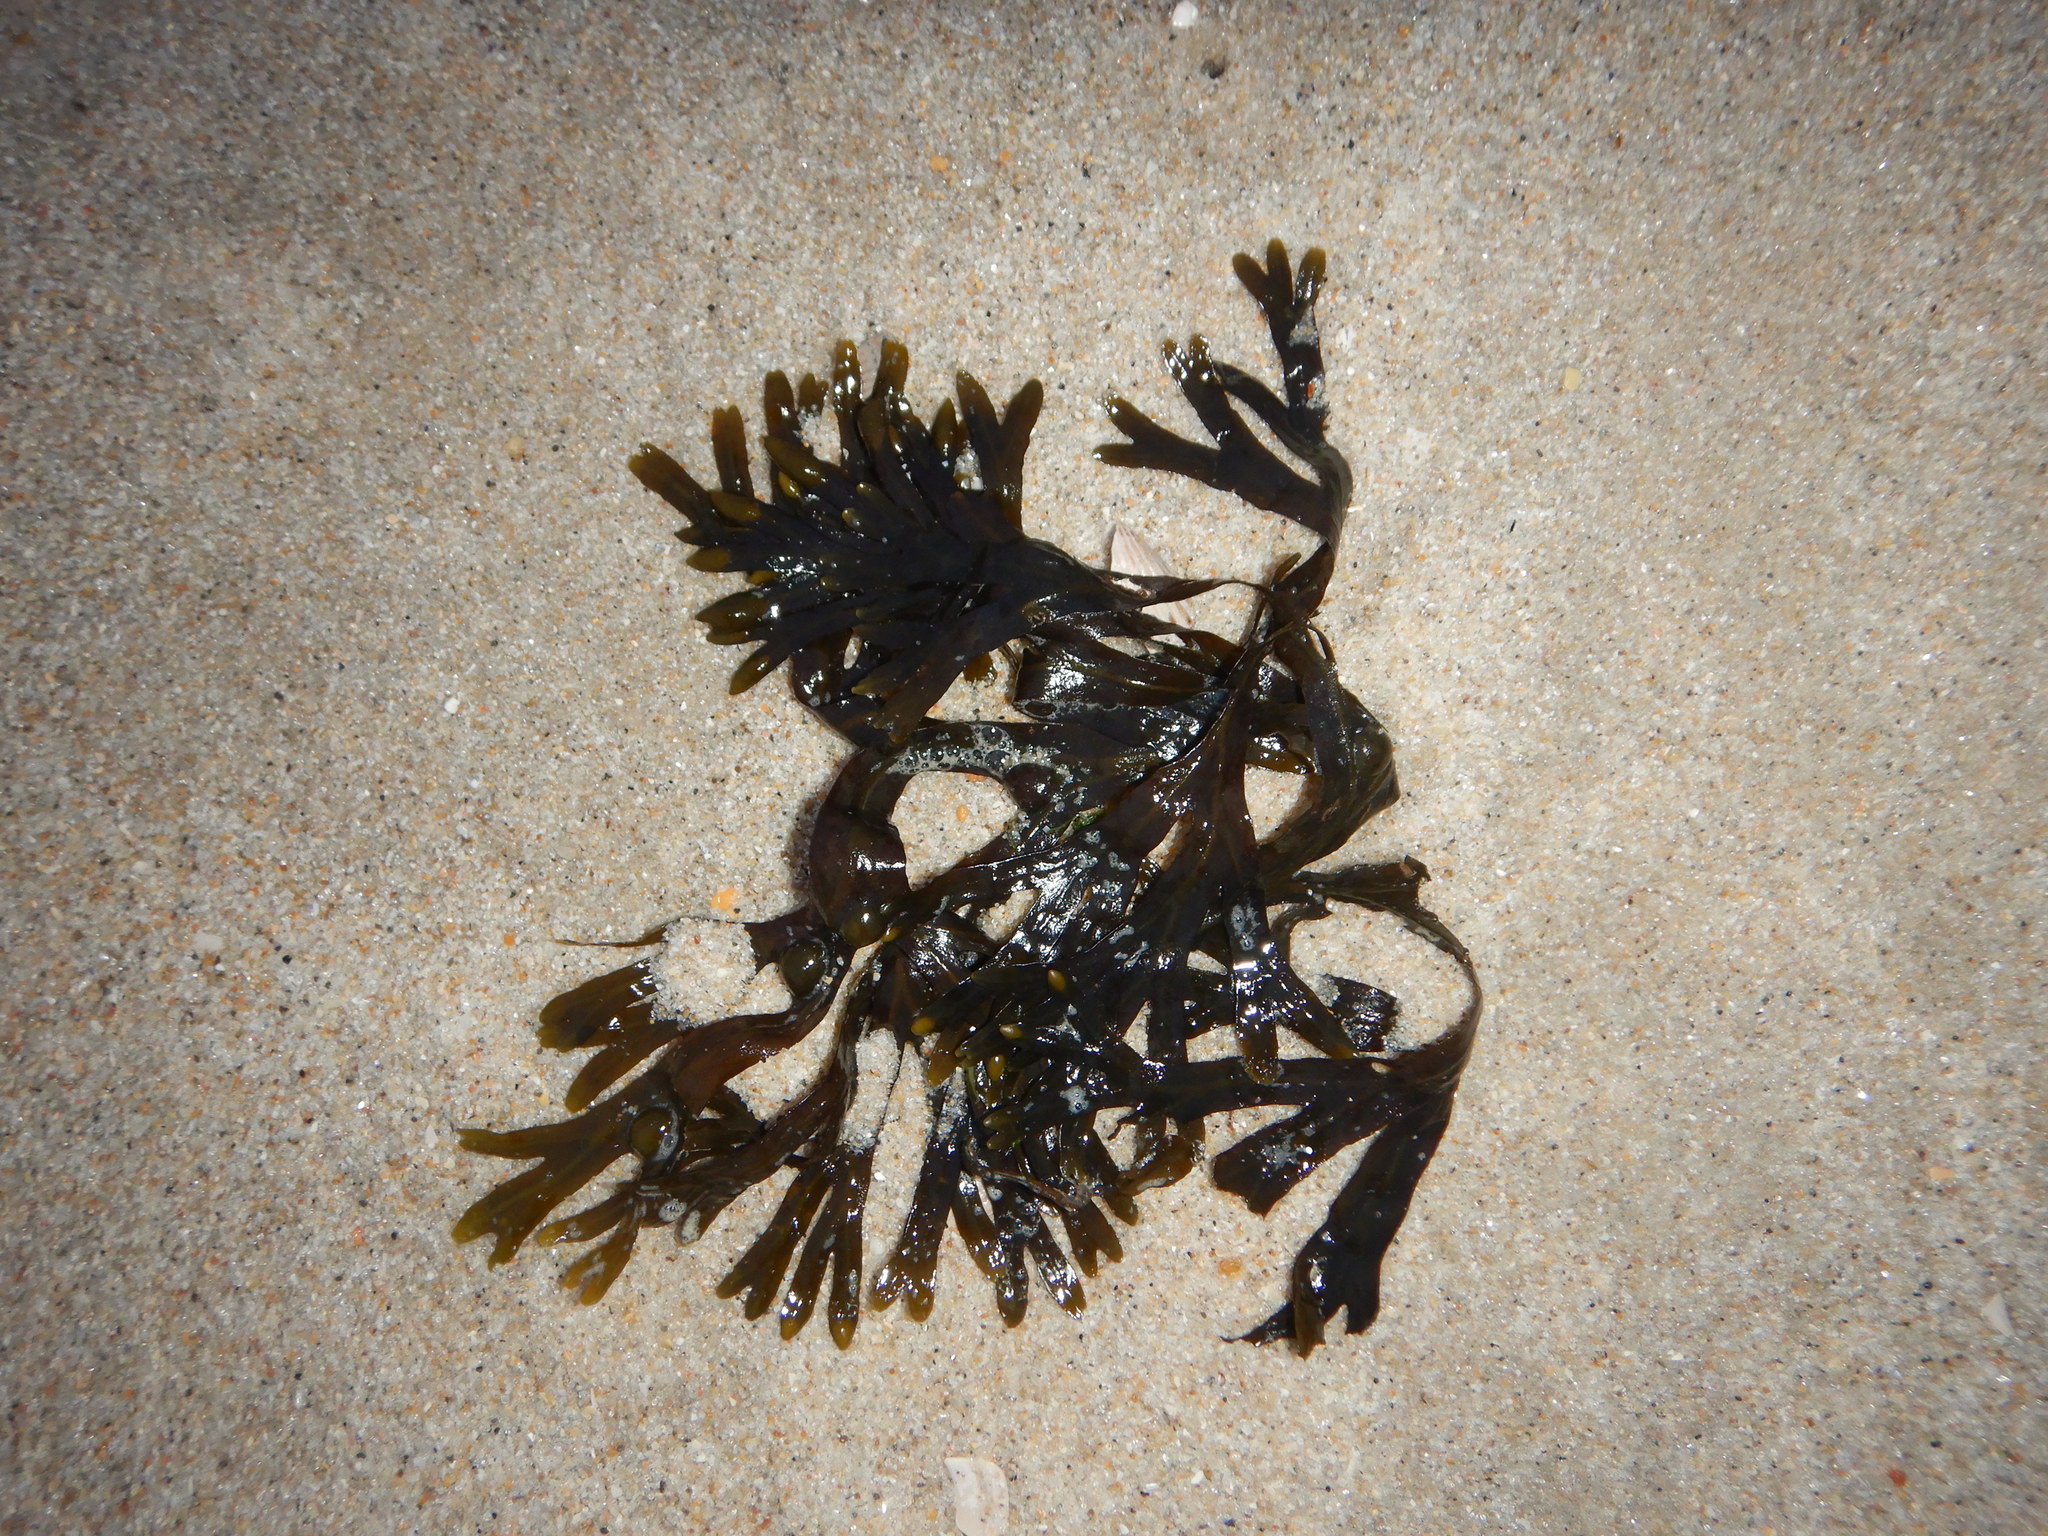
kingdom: Chromista
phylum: Ochrophyta
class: Phaeophyceae
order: Fucales
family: Fucaceae
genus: Fucus
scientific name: Fucus vesiculosus
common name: Bladder wrack
